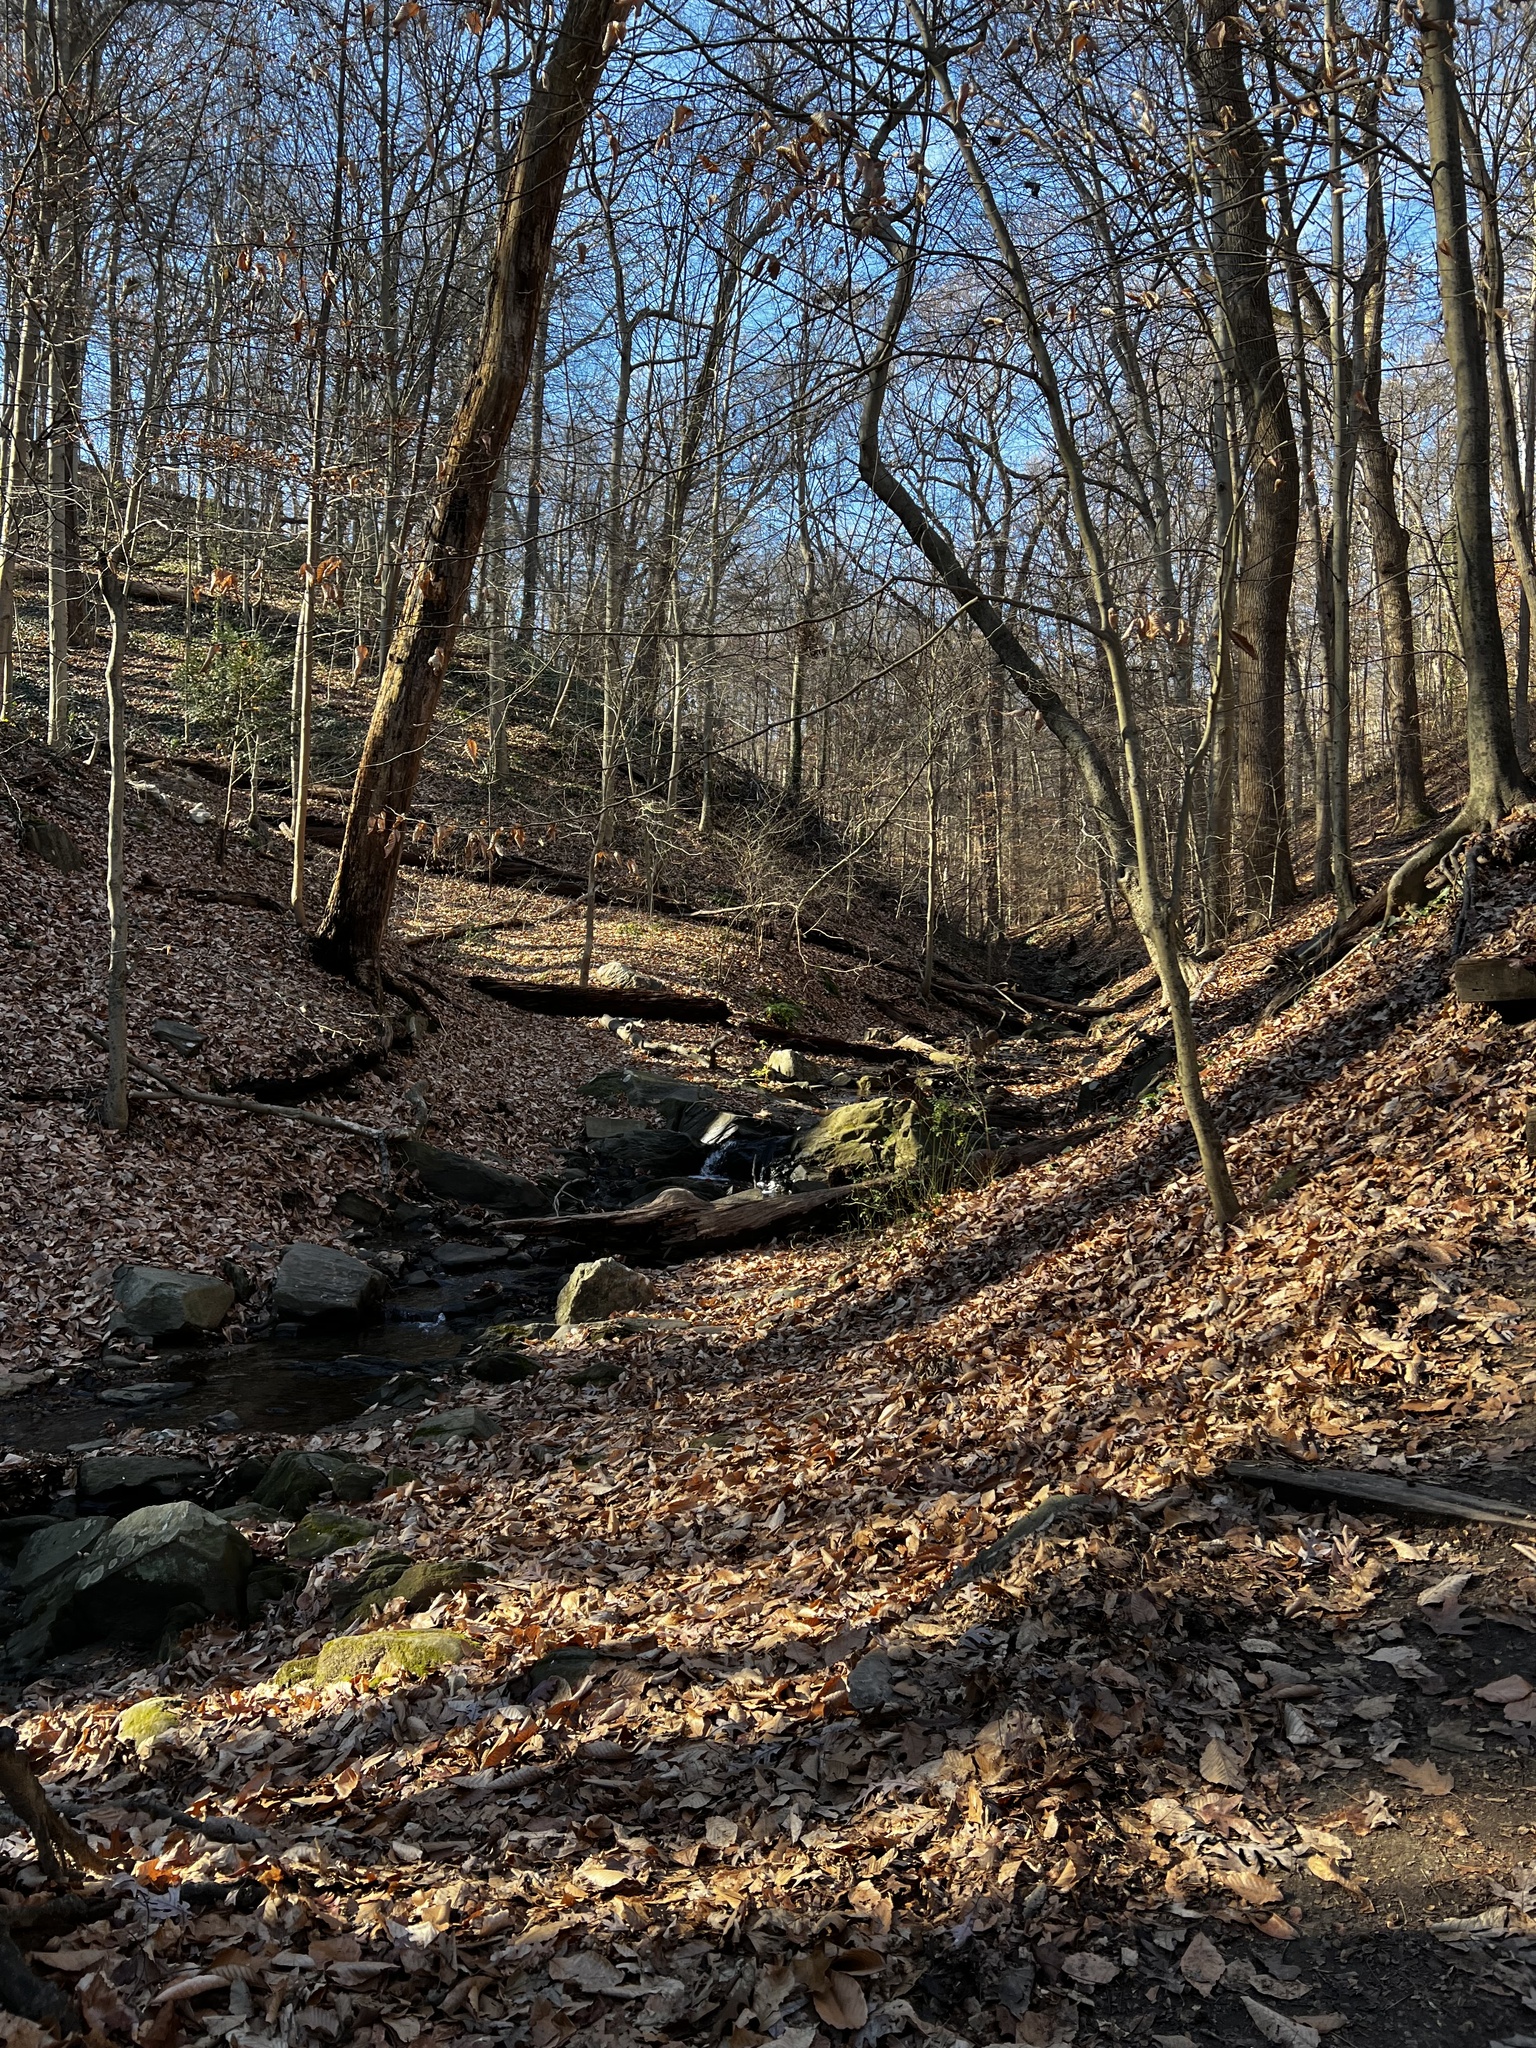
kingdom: Animalia
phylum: Chordata
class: Mammalia
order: Artiodactyla
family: Cervidae
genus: Odocoileus
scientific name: Odocoileus virginianus
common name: White-tailed deer
